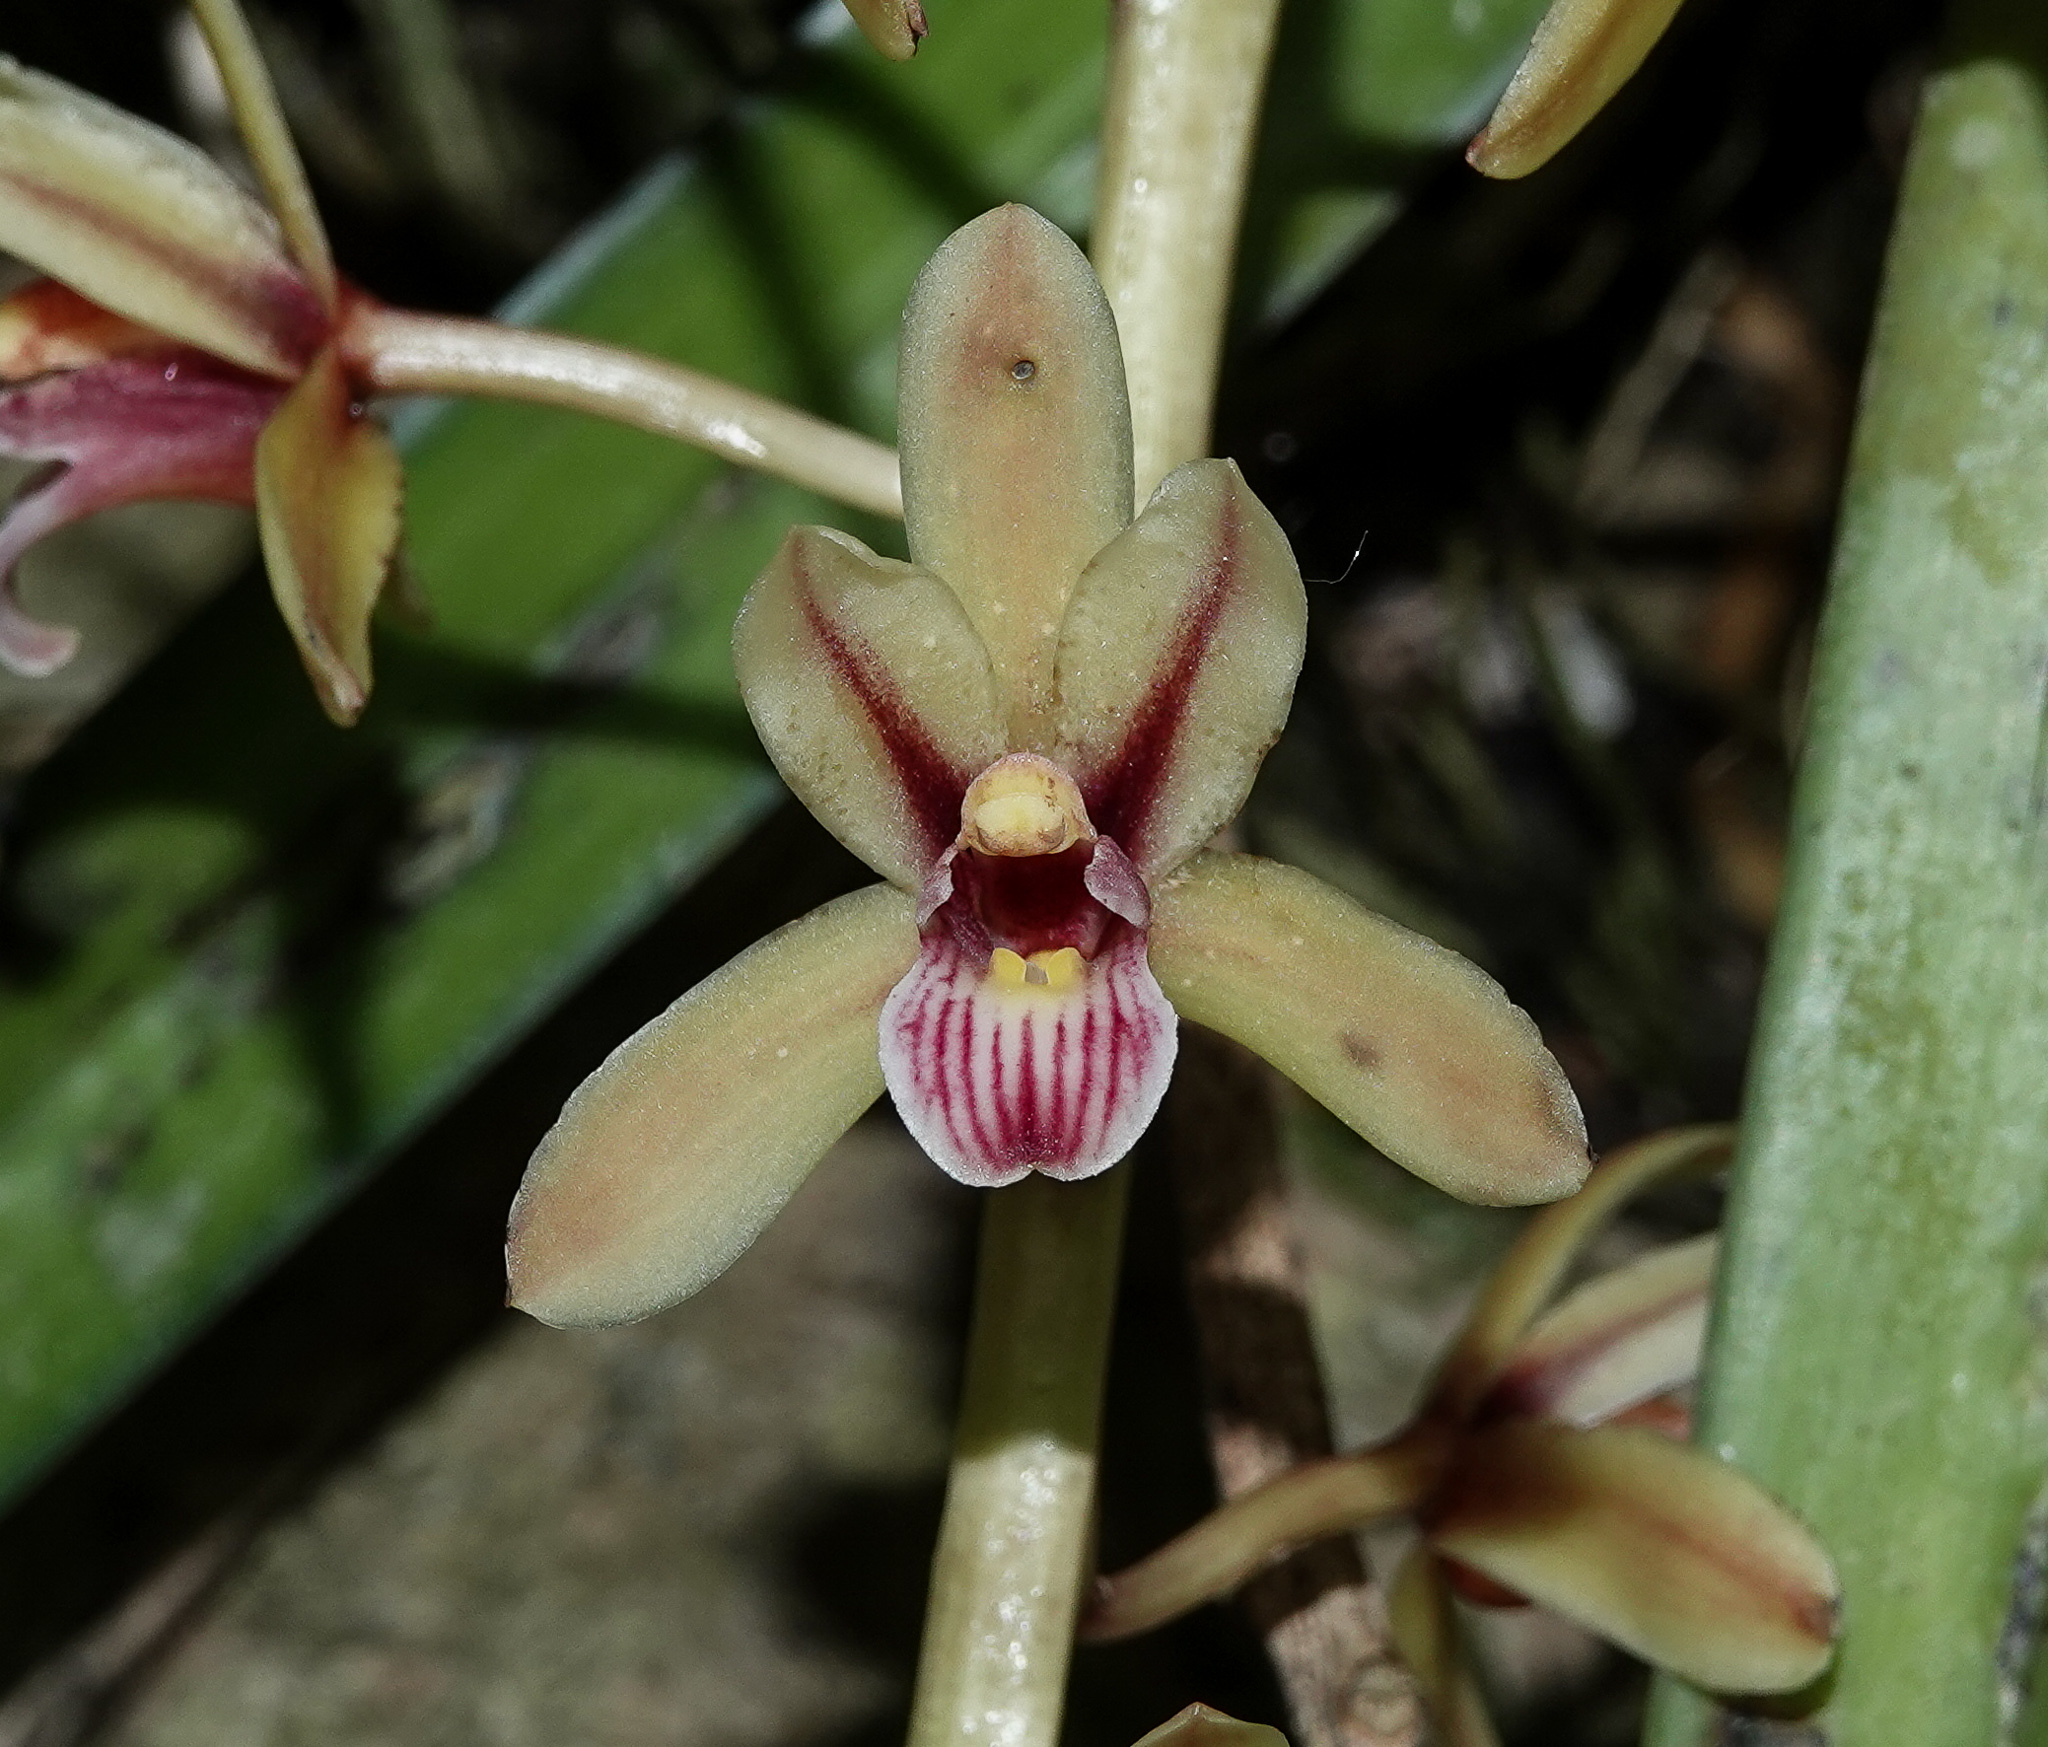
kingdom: Plantae
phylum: Tracheophyta
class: Liliopsida
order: Asparagales
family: Orchidaceae
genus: Cymbidium
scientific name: Cymbidium aloifolium
